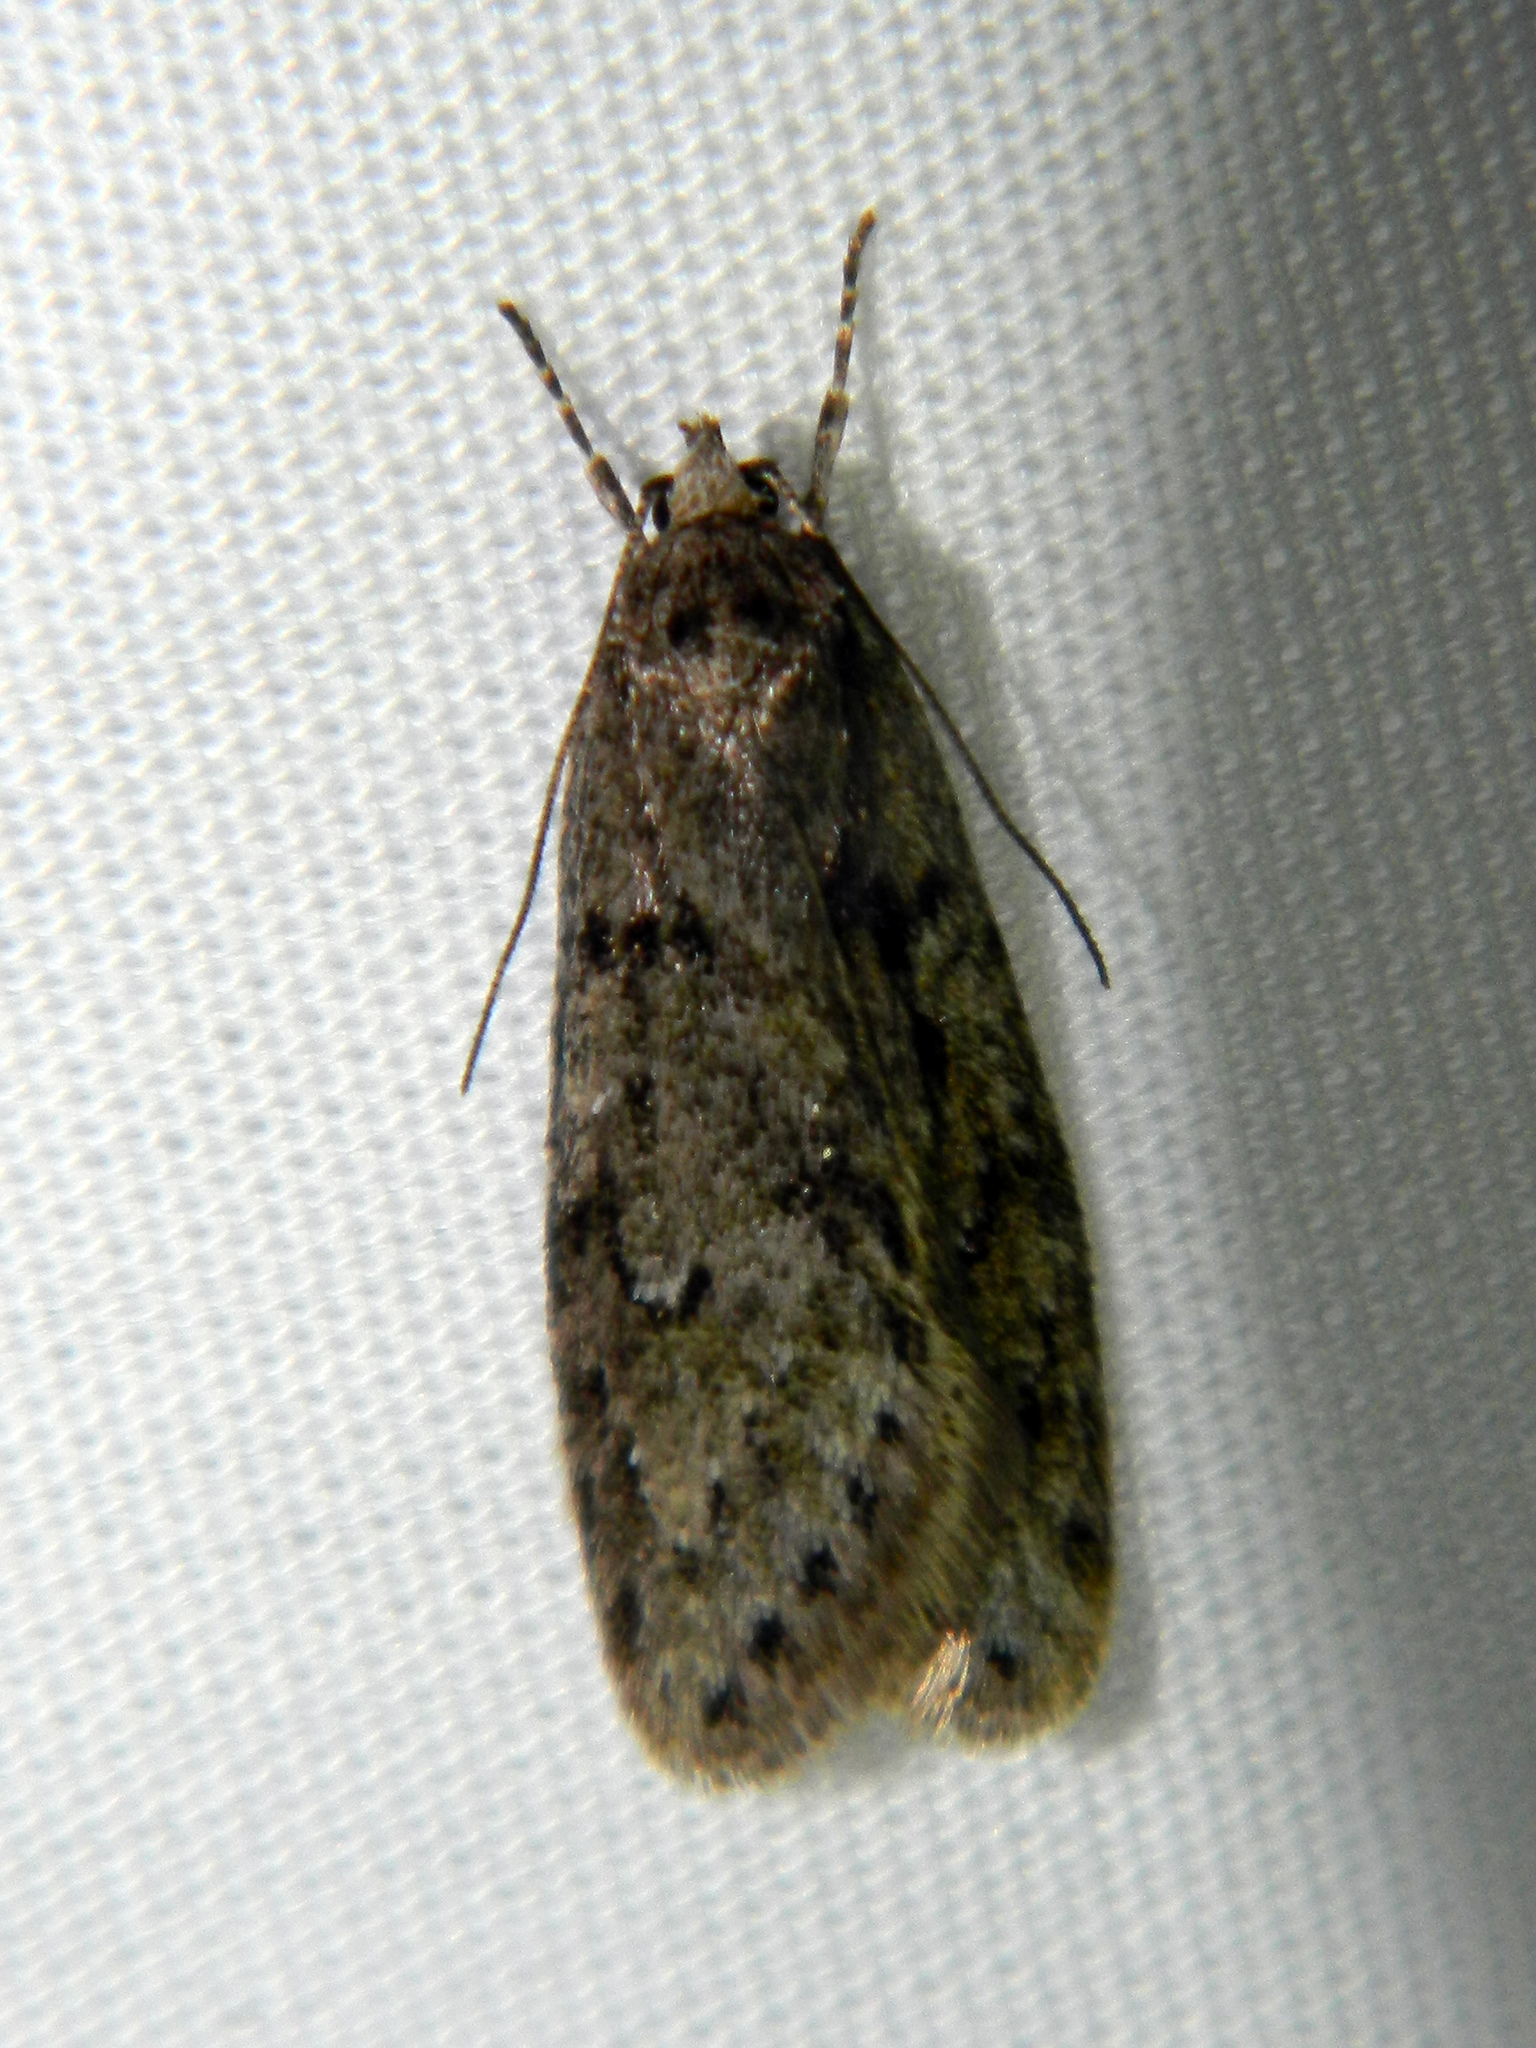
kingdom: Animalia
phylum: Arthropoda
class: Insecta
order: Lepidoptera
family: Depressariidae
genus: Semioscopis
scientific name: Semioscopis inornata
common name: Poplar micromoth
